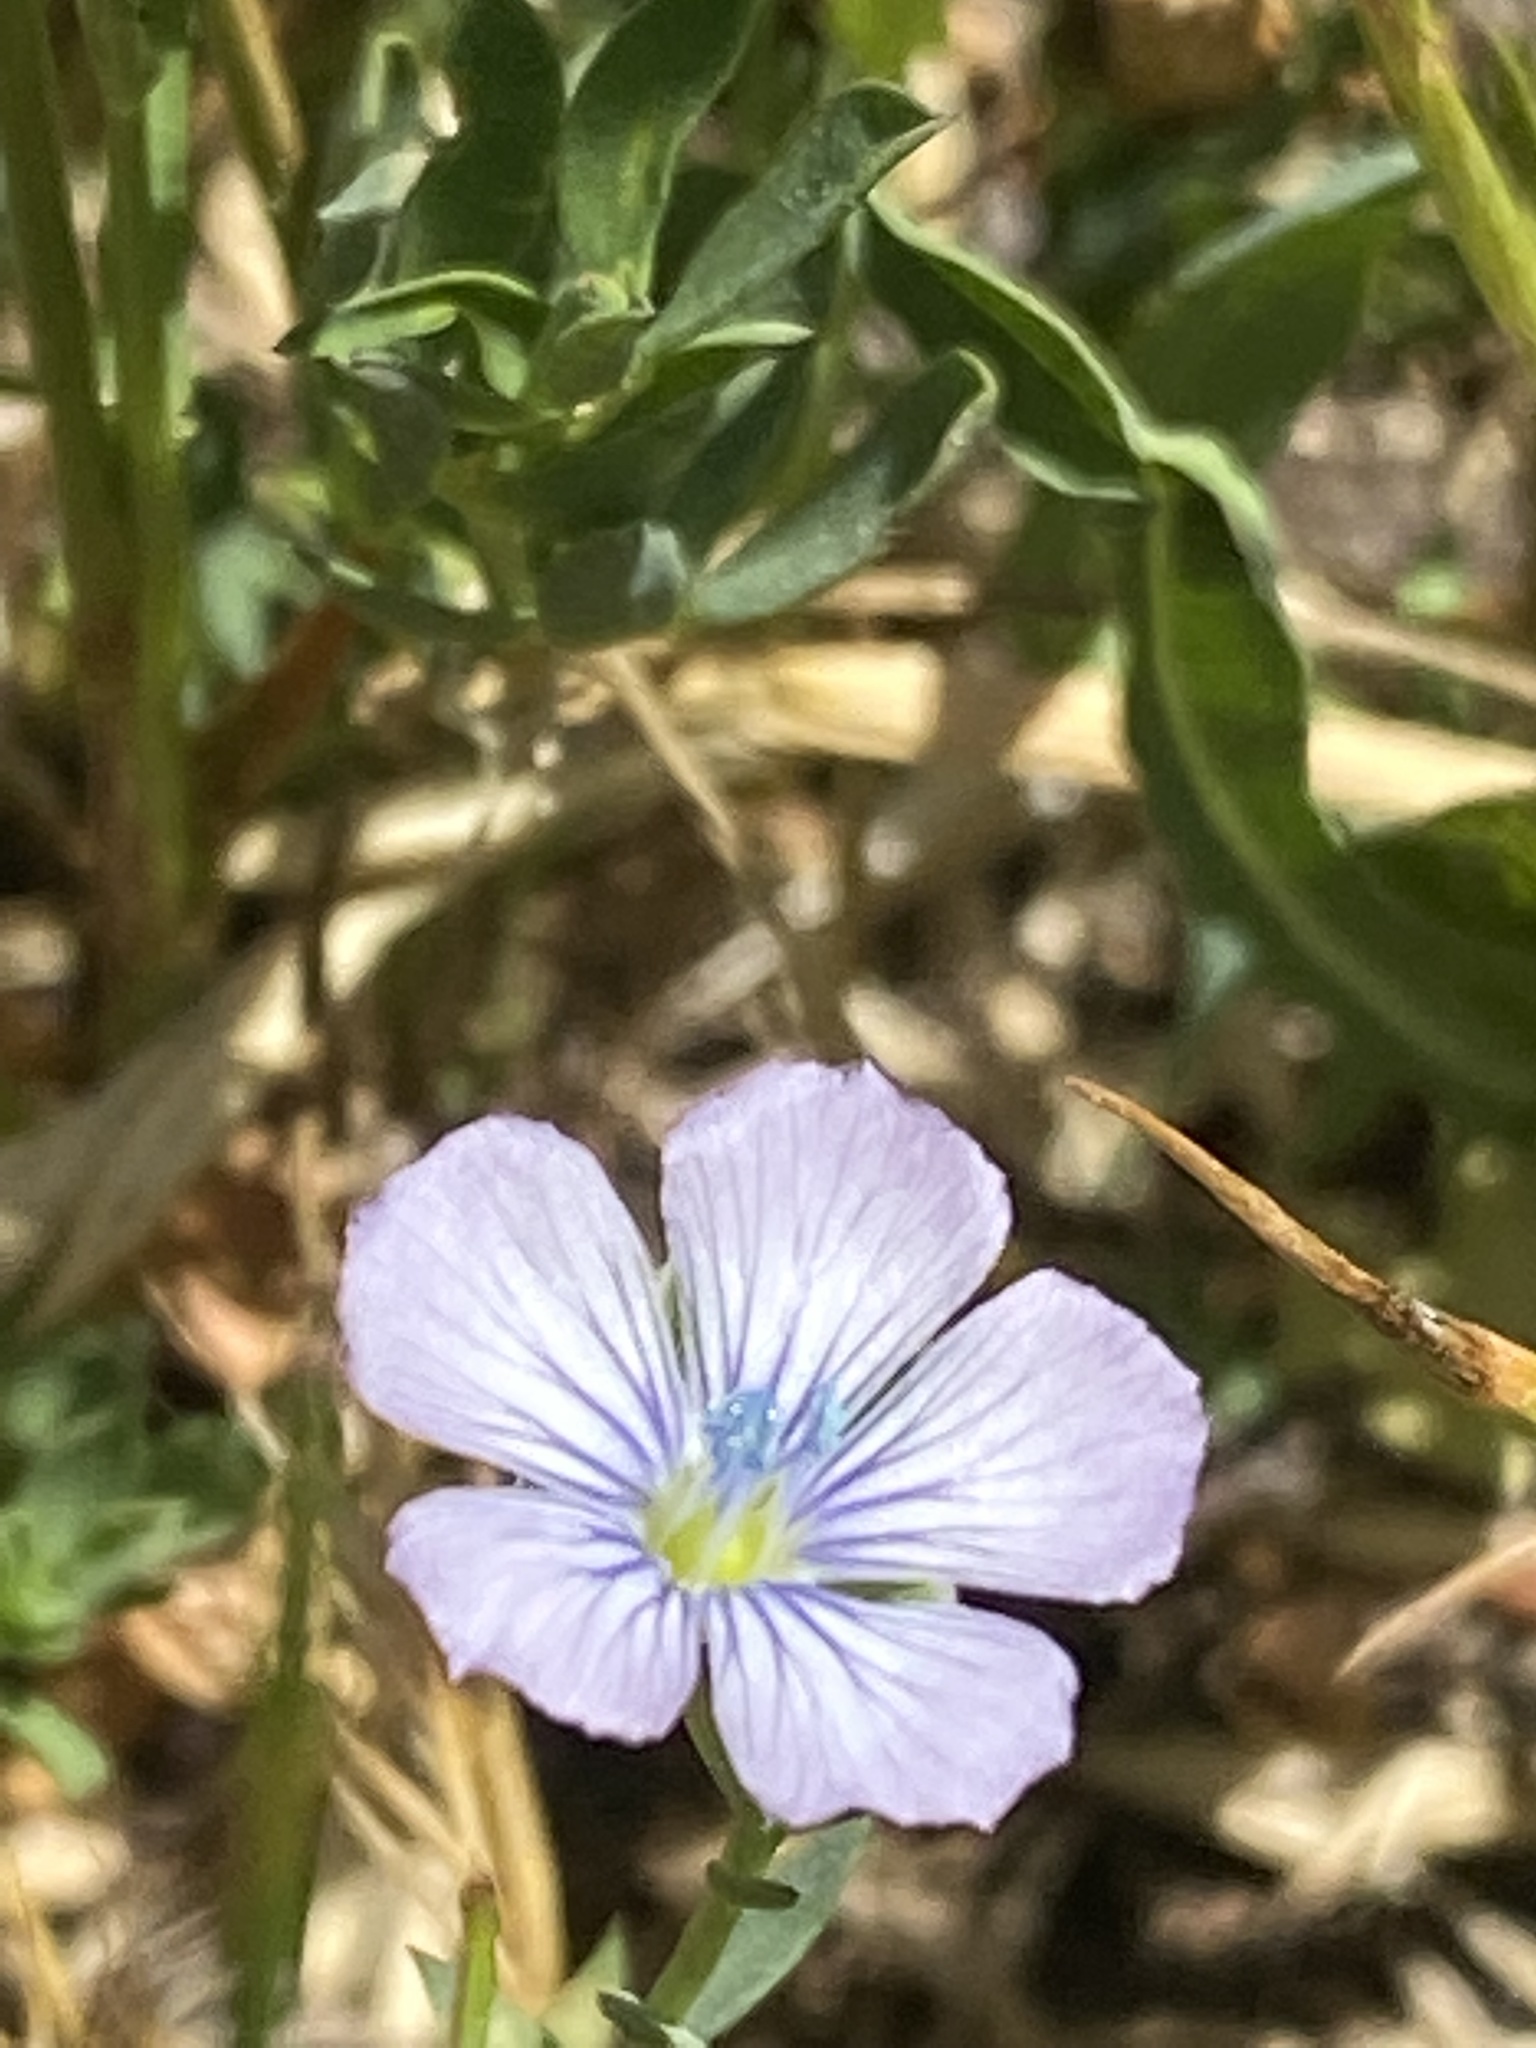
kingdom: Plantae
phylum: Tracheophyta
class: Magnoliopsida
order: Malpighiales
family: Linaceae
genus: Linum
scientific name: Linum bienne
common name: Pale flax
